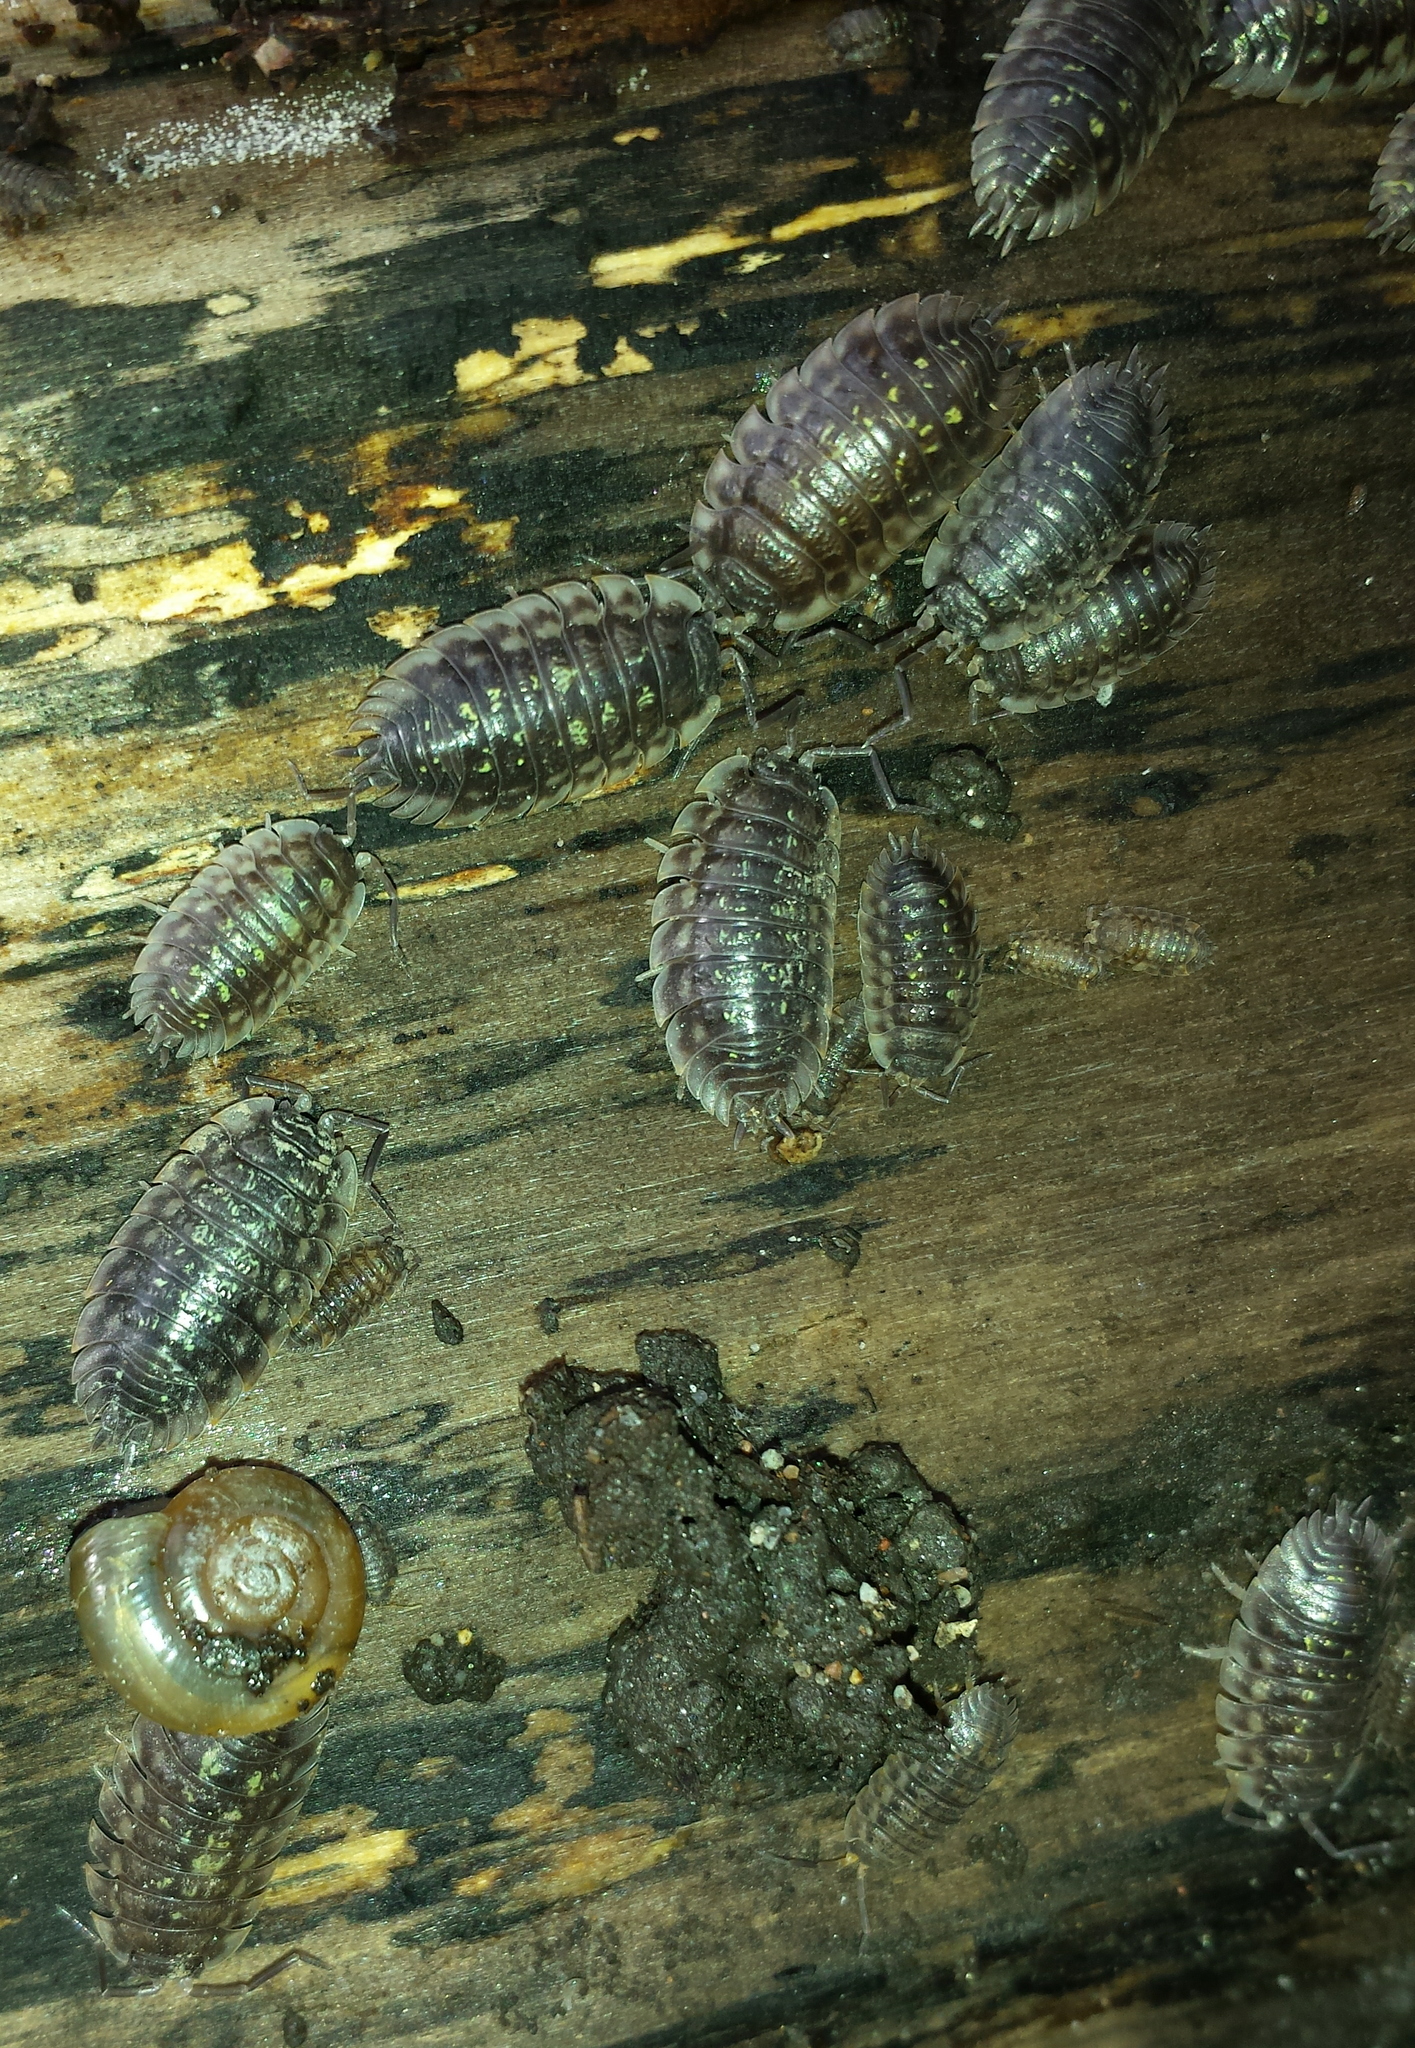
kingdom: Animalia
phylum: Arthropoda
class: Malacostraca
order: Isopoda
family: Oniscidae
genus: Oniscus
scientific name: Oniscus asellus
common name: Common shiny woodlouse
